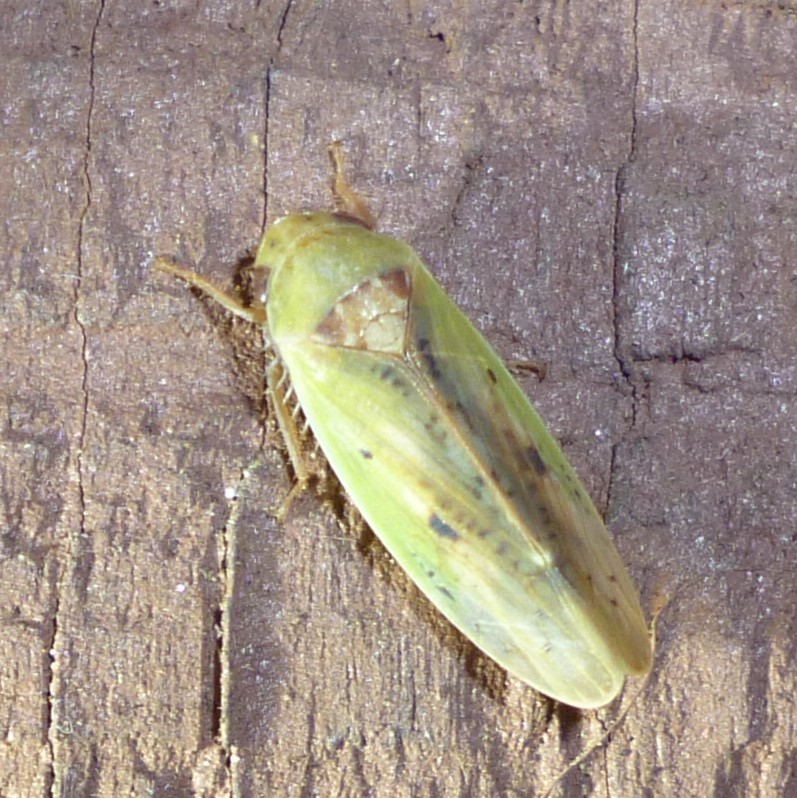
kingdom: Animalia
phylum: Arthropoda
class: Insecta
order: Hemiptera
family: Cicadellidae
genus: Ponana
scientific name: Ponana pectoralis
